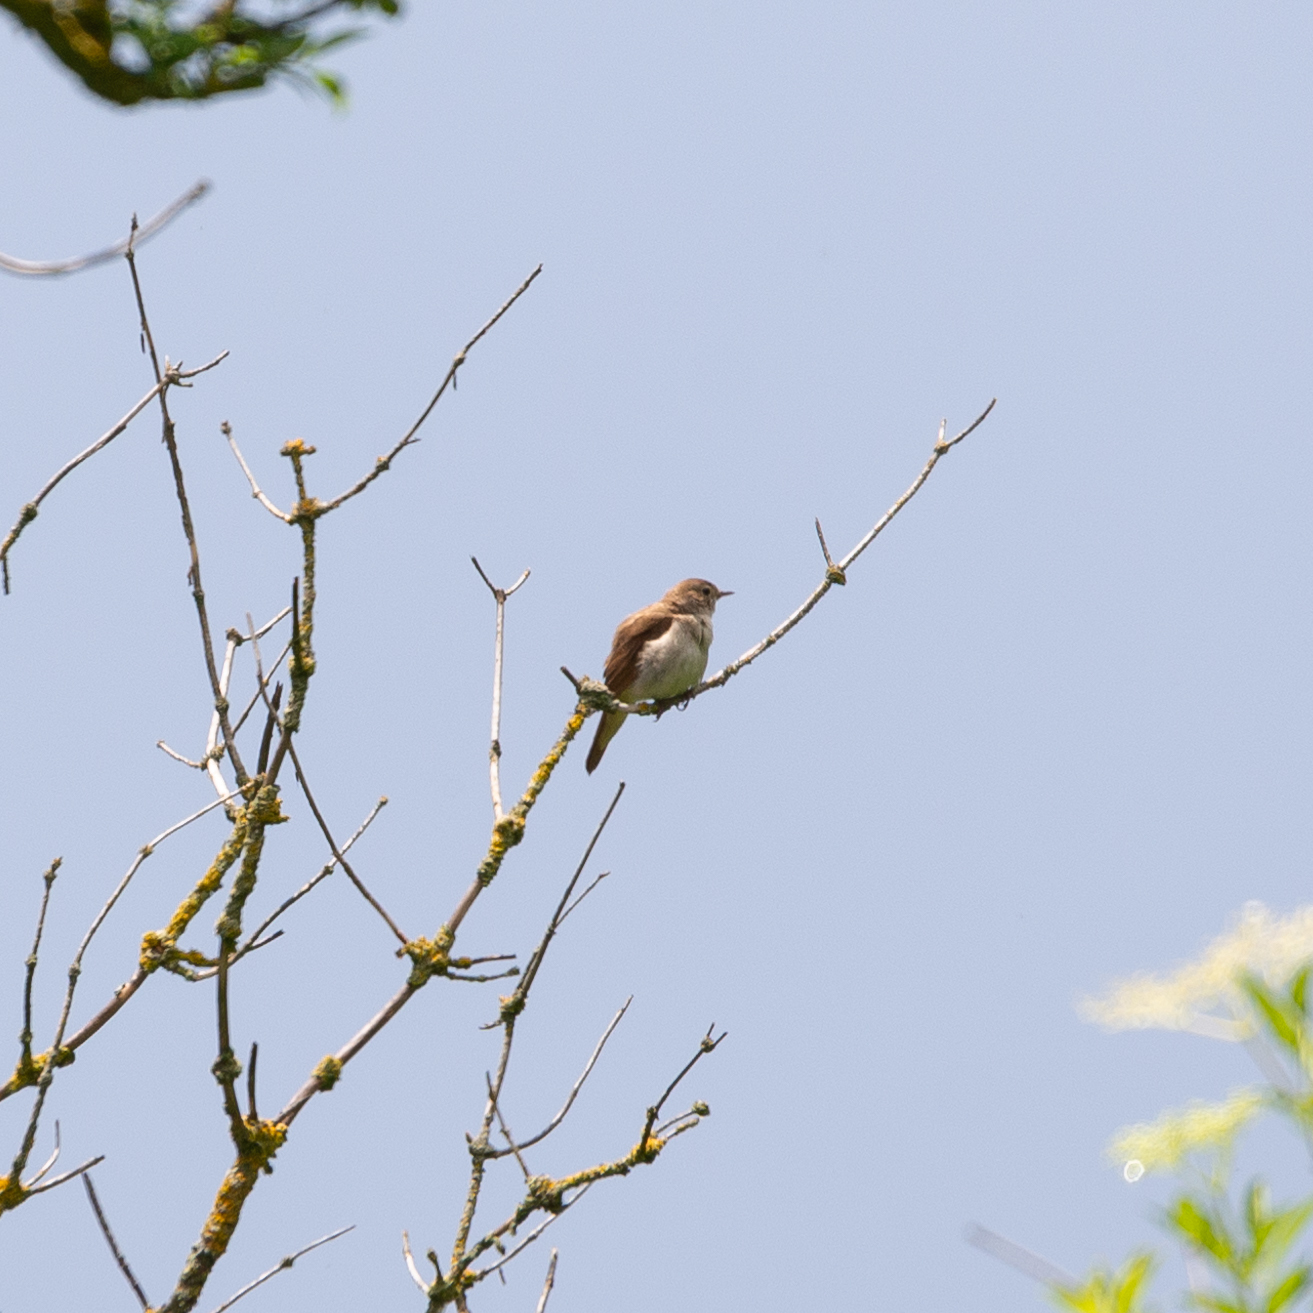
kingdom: Animalia
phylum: Chordata
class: Aves
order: Passeriformes
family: Muscicapidae
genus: Luscinia
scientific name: Luscinia megarhynchos
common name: Common nightingale
